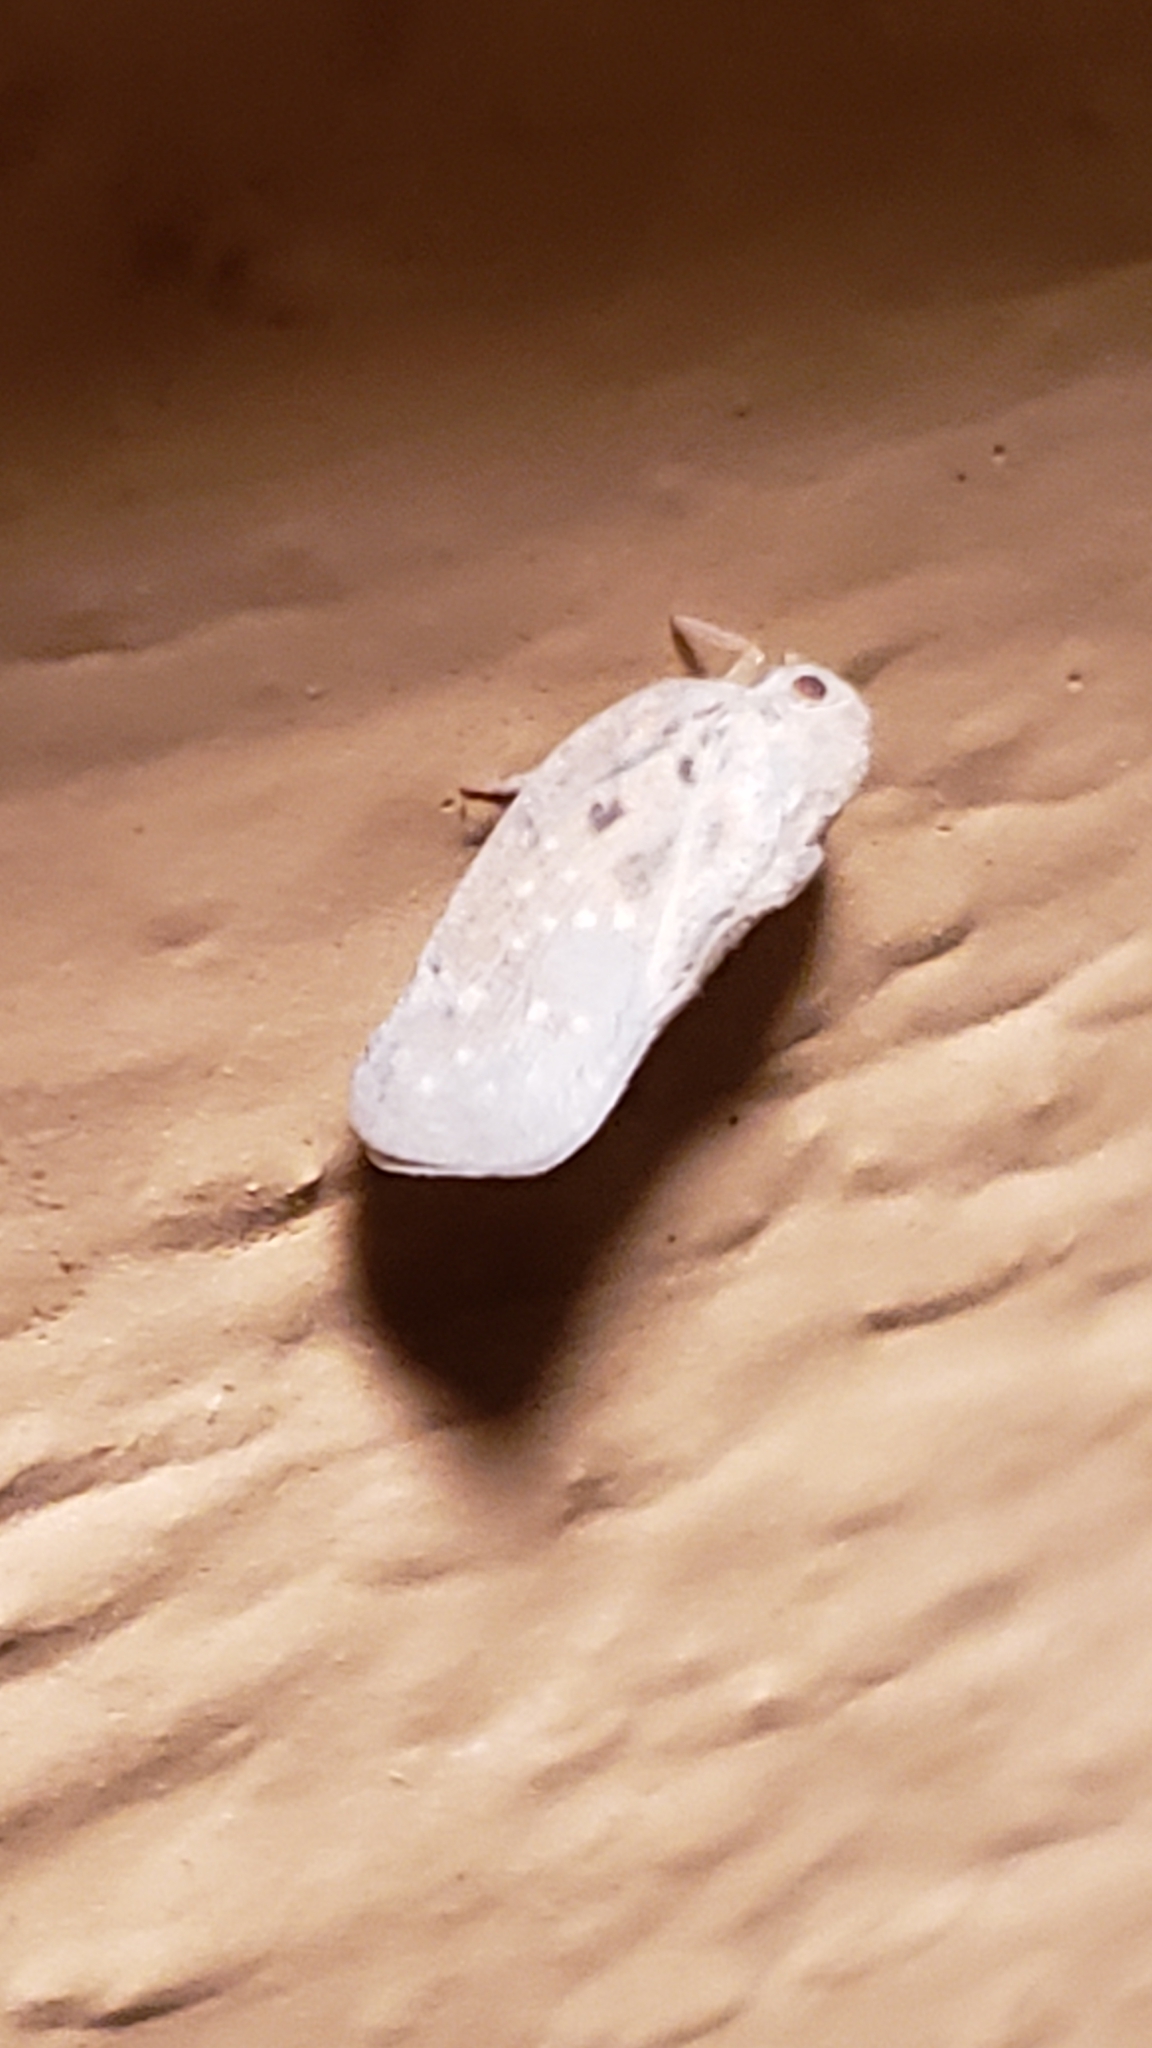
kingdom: Animalia
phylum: Arthropoda
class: Insecta
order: Hemiptera
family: Flatidae
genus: Metcalfa
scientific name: Metcalfa pruinosa
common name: Citrus flatid planthopper
